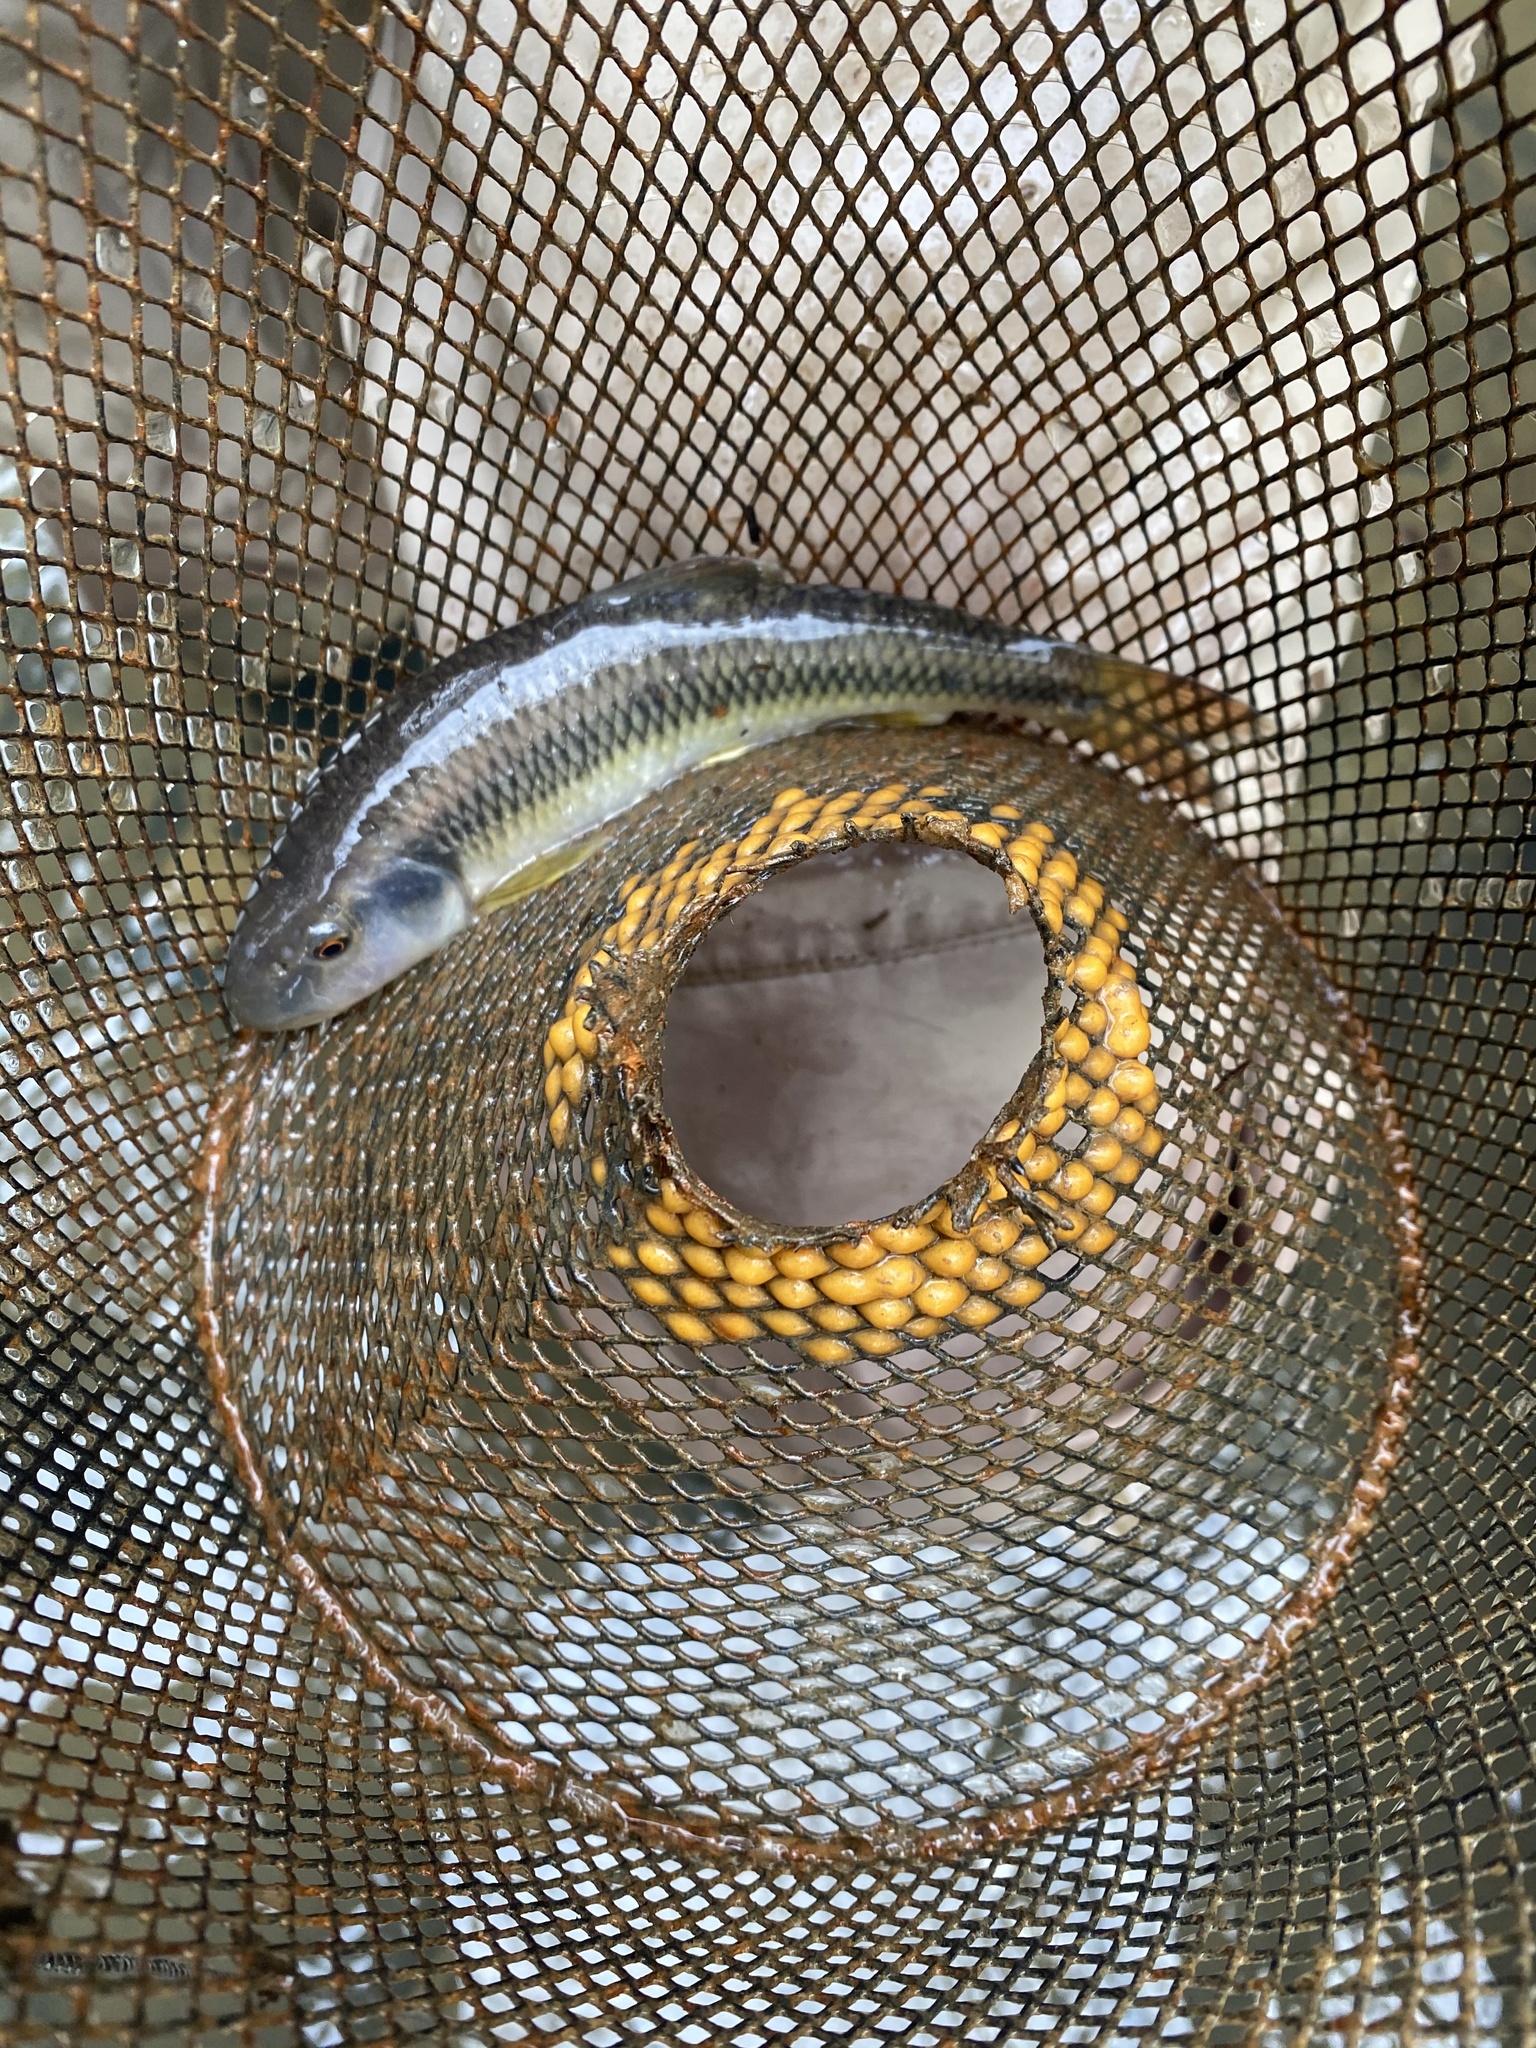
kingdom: Animalia
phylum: Chordata
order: Cypriniformes
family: Cyprinidae
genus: Nocomis
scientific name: Nocomis leptocephalus
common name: Bluehead chub
